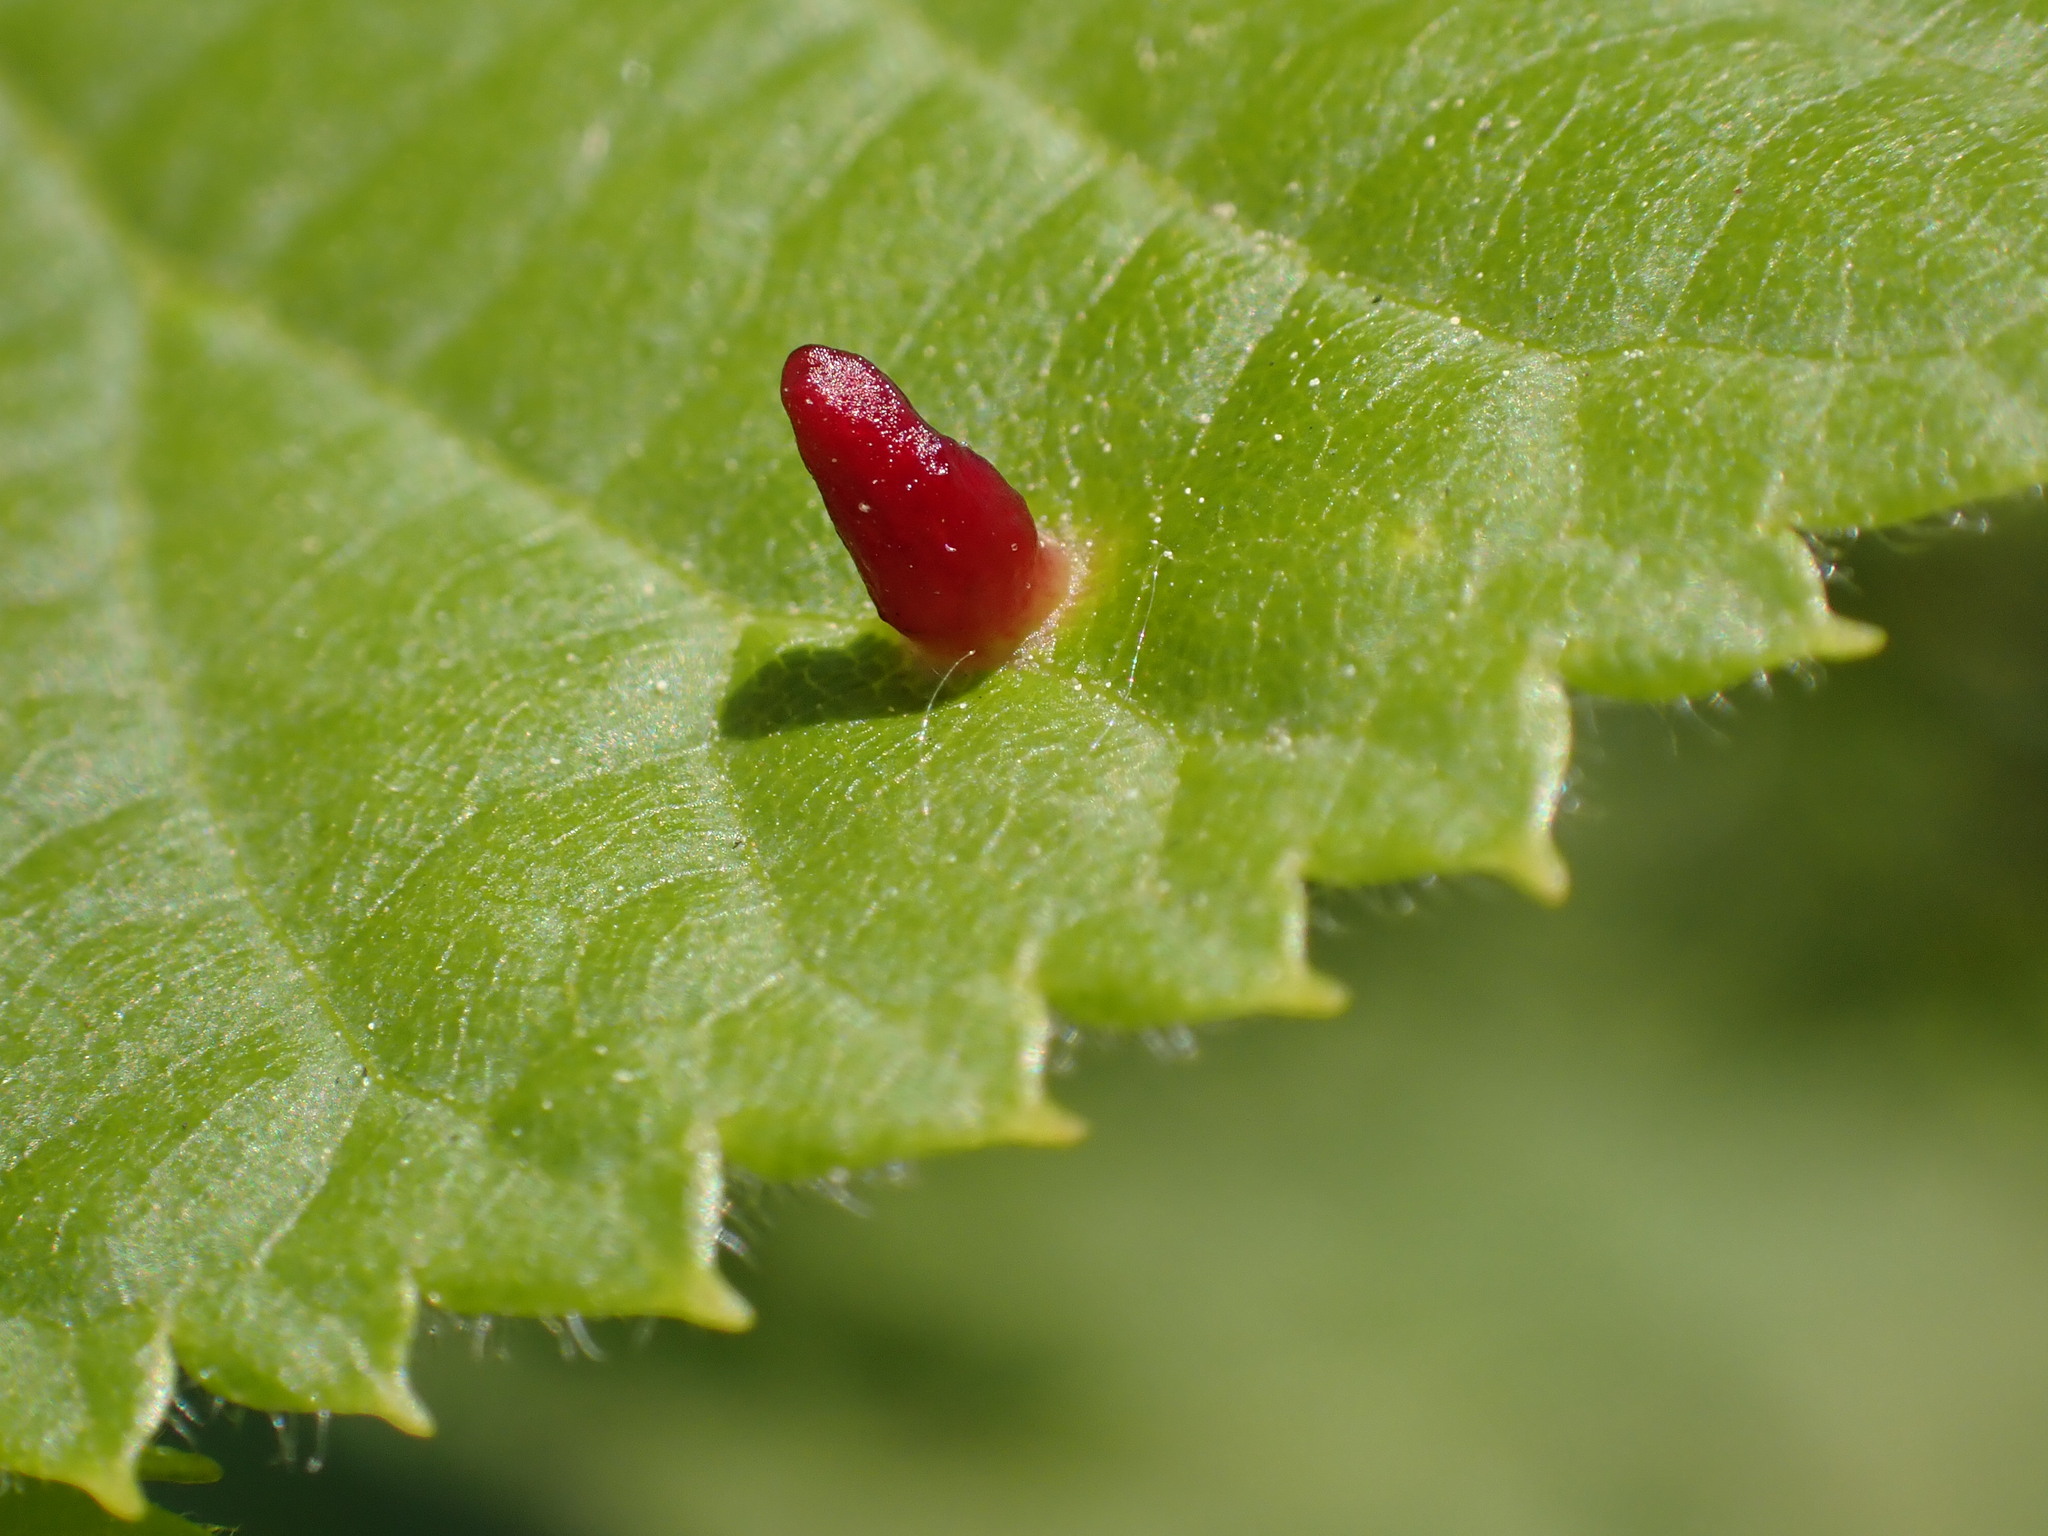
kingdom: Animalia
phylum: Arthropoda
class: Arachnida
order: Trombidiformes
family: Eriophyidae
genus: Eriophyes
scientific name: Eriophyes tiliae
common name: Red nail gall mite
